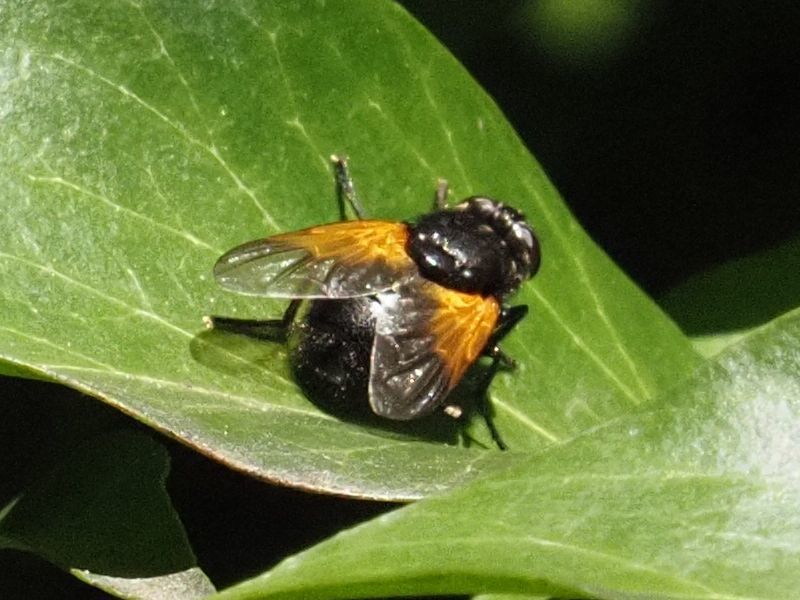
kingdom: Animalia
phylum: Arthropoda
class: Insecta
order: Diptera
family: Muscidae
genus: Mesembrina
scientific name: Mesembrina meridiana
